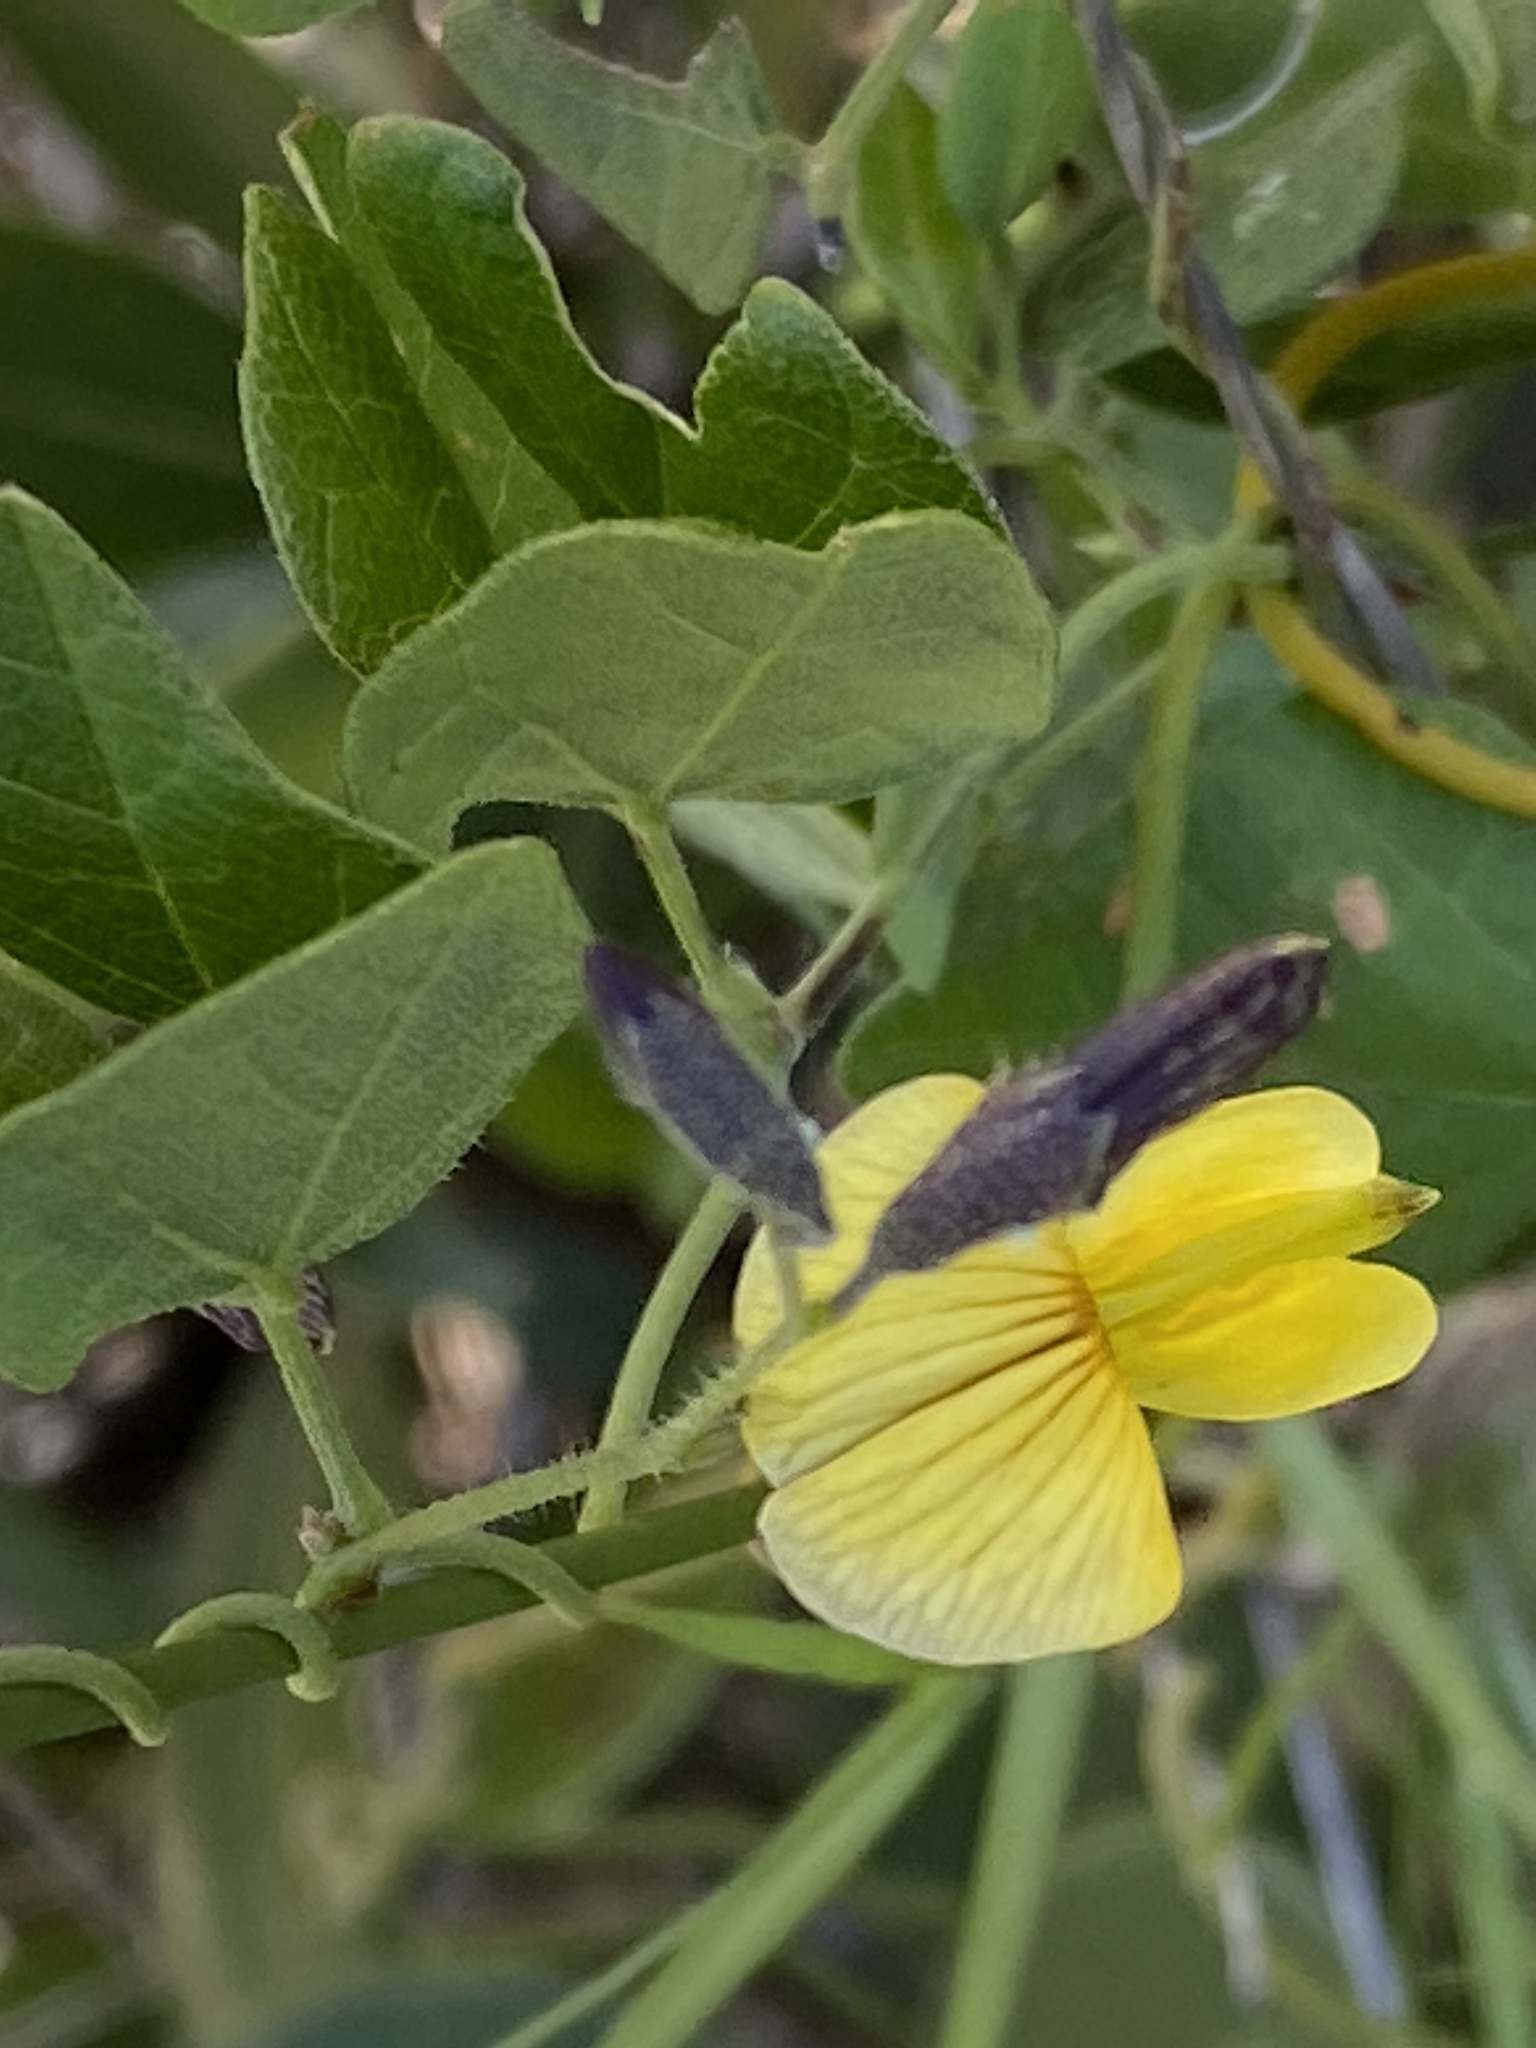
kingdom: Plantae
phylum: Tracheophyta
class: Magnoliopsida
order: Fabales
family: Fabaceae
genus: Rhynchosia
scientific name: Rhynchosia caribaea
